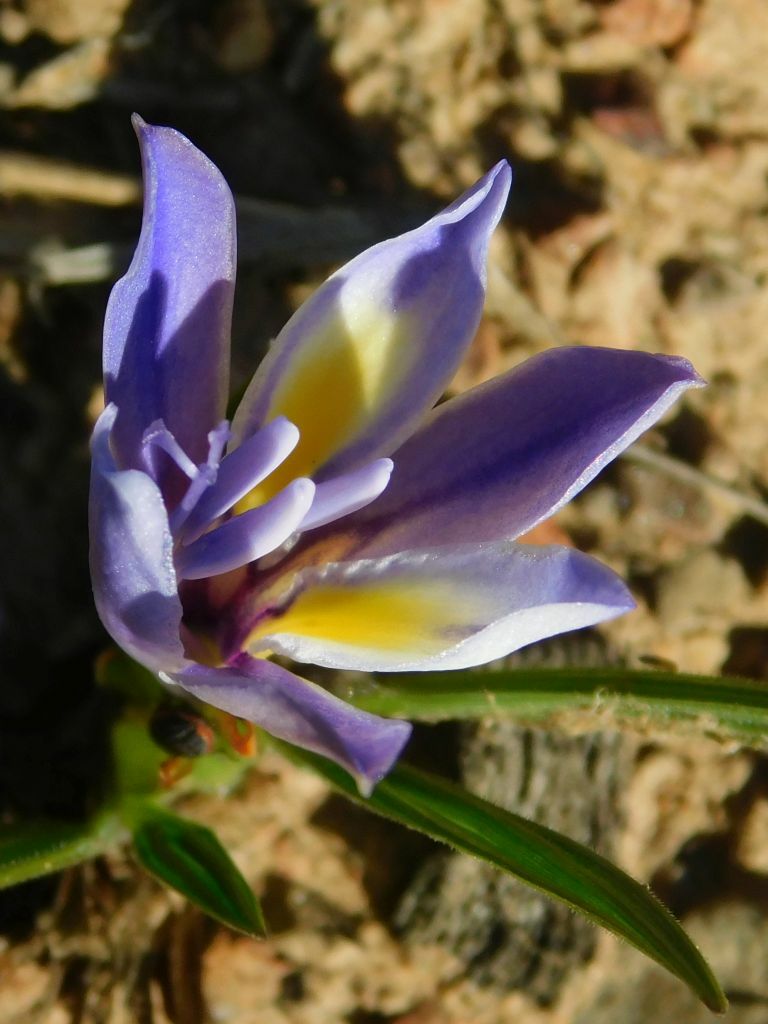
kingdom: Plantae
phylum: Tracheophyta
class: Liliopsida
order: Asparagales
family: Iridaceae
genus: Babiana
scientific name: Babiana patula
